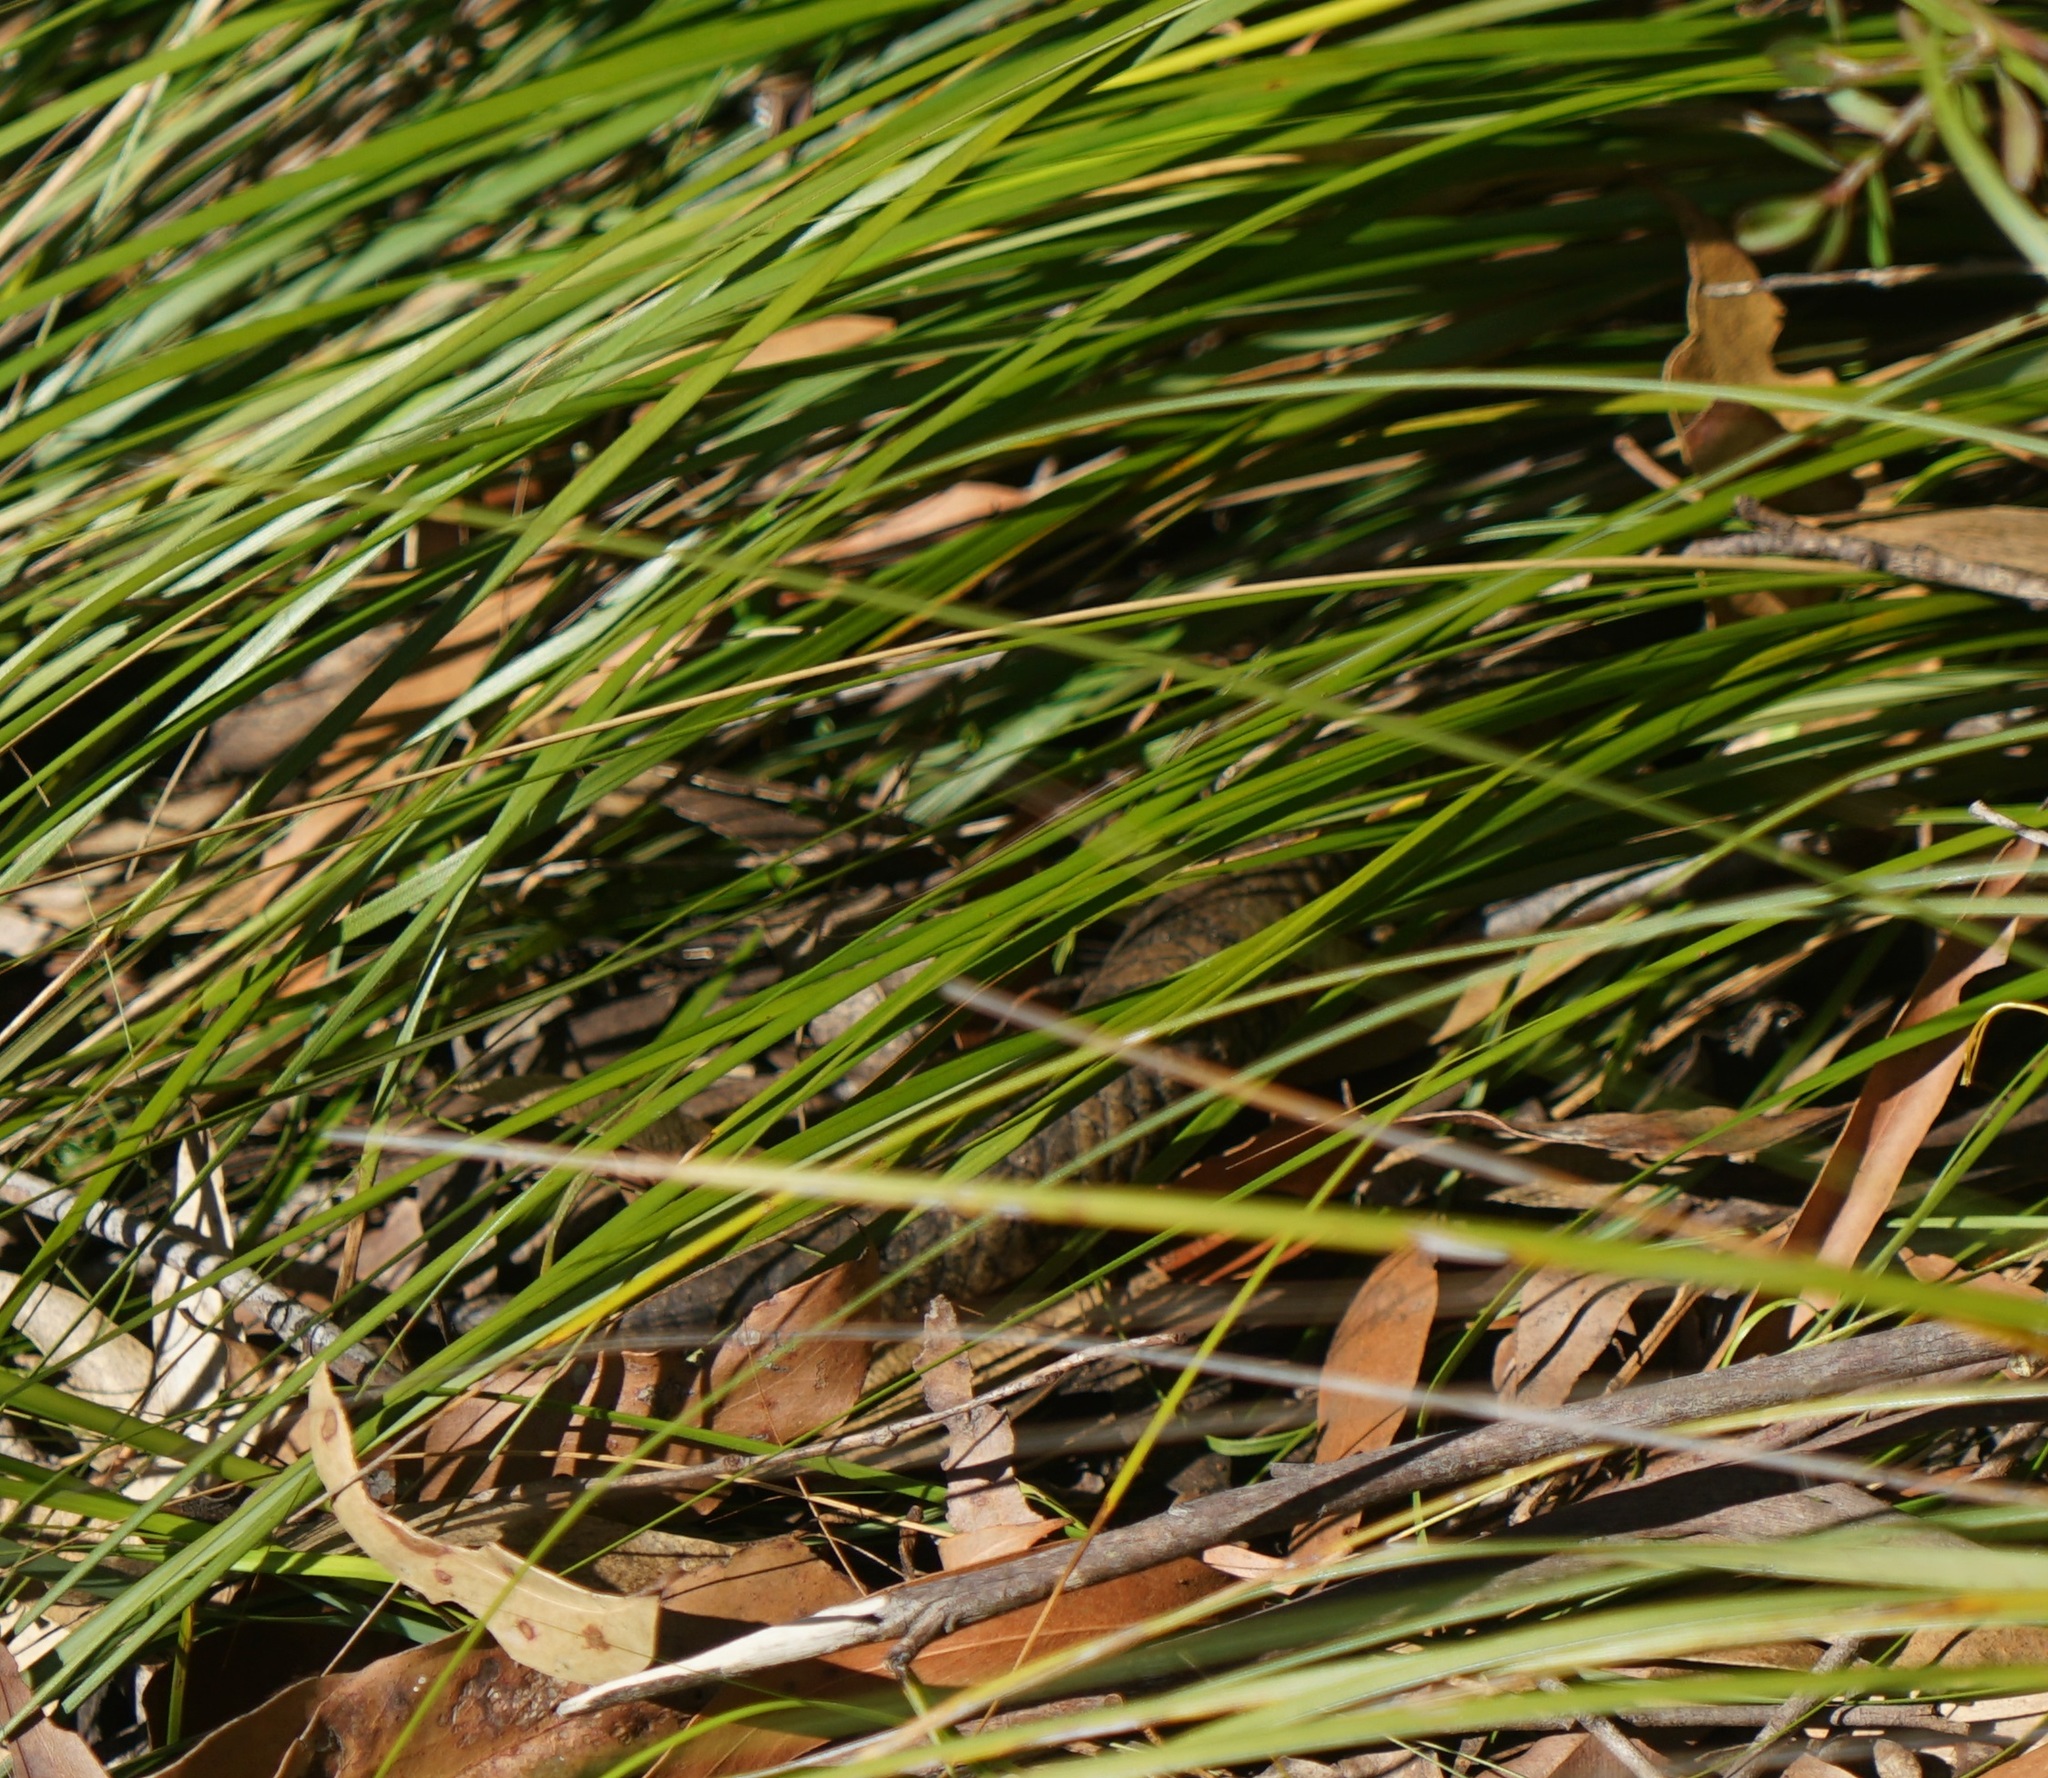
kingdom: Animalia
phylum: Chordata
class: Squamata
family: Scincidae
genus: Tiliqua
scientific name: Tiliqua scincoides
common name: Common bluetongue
